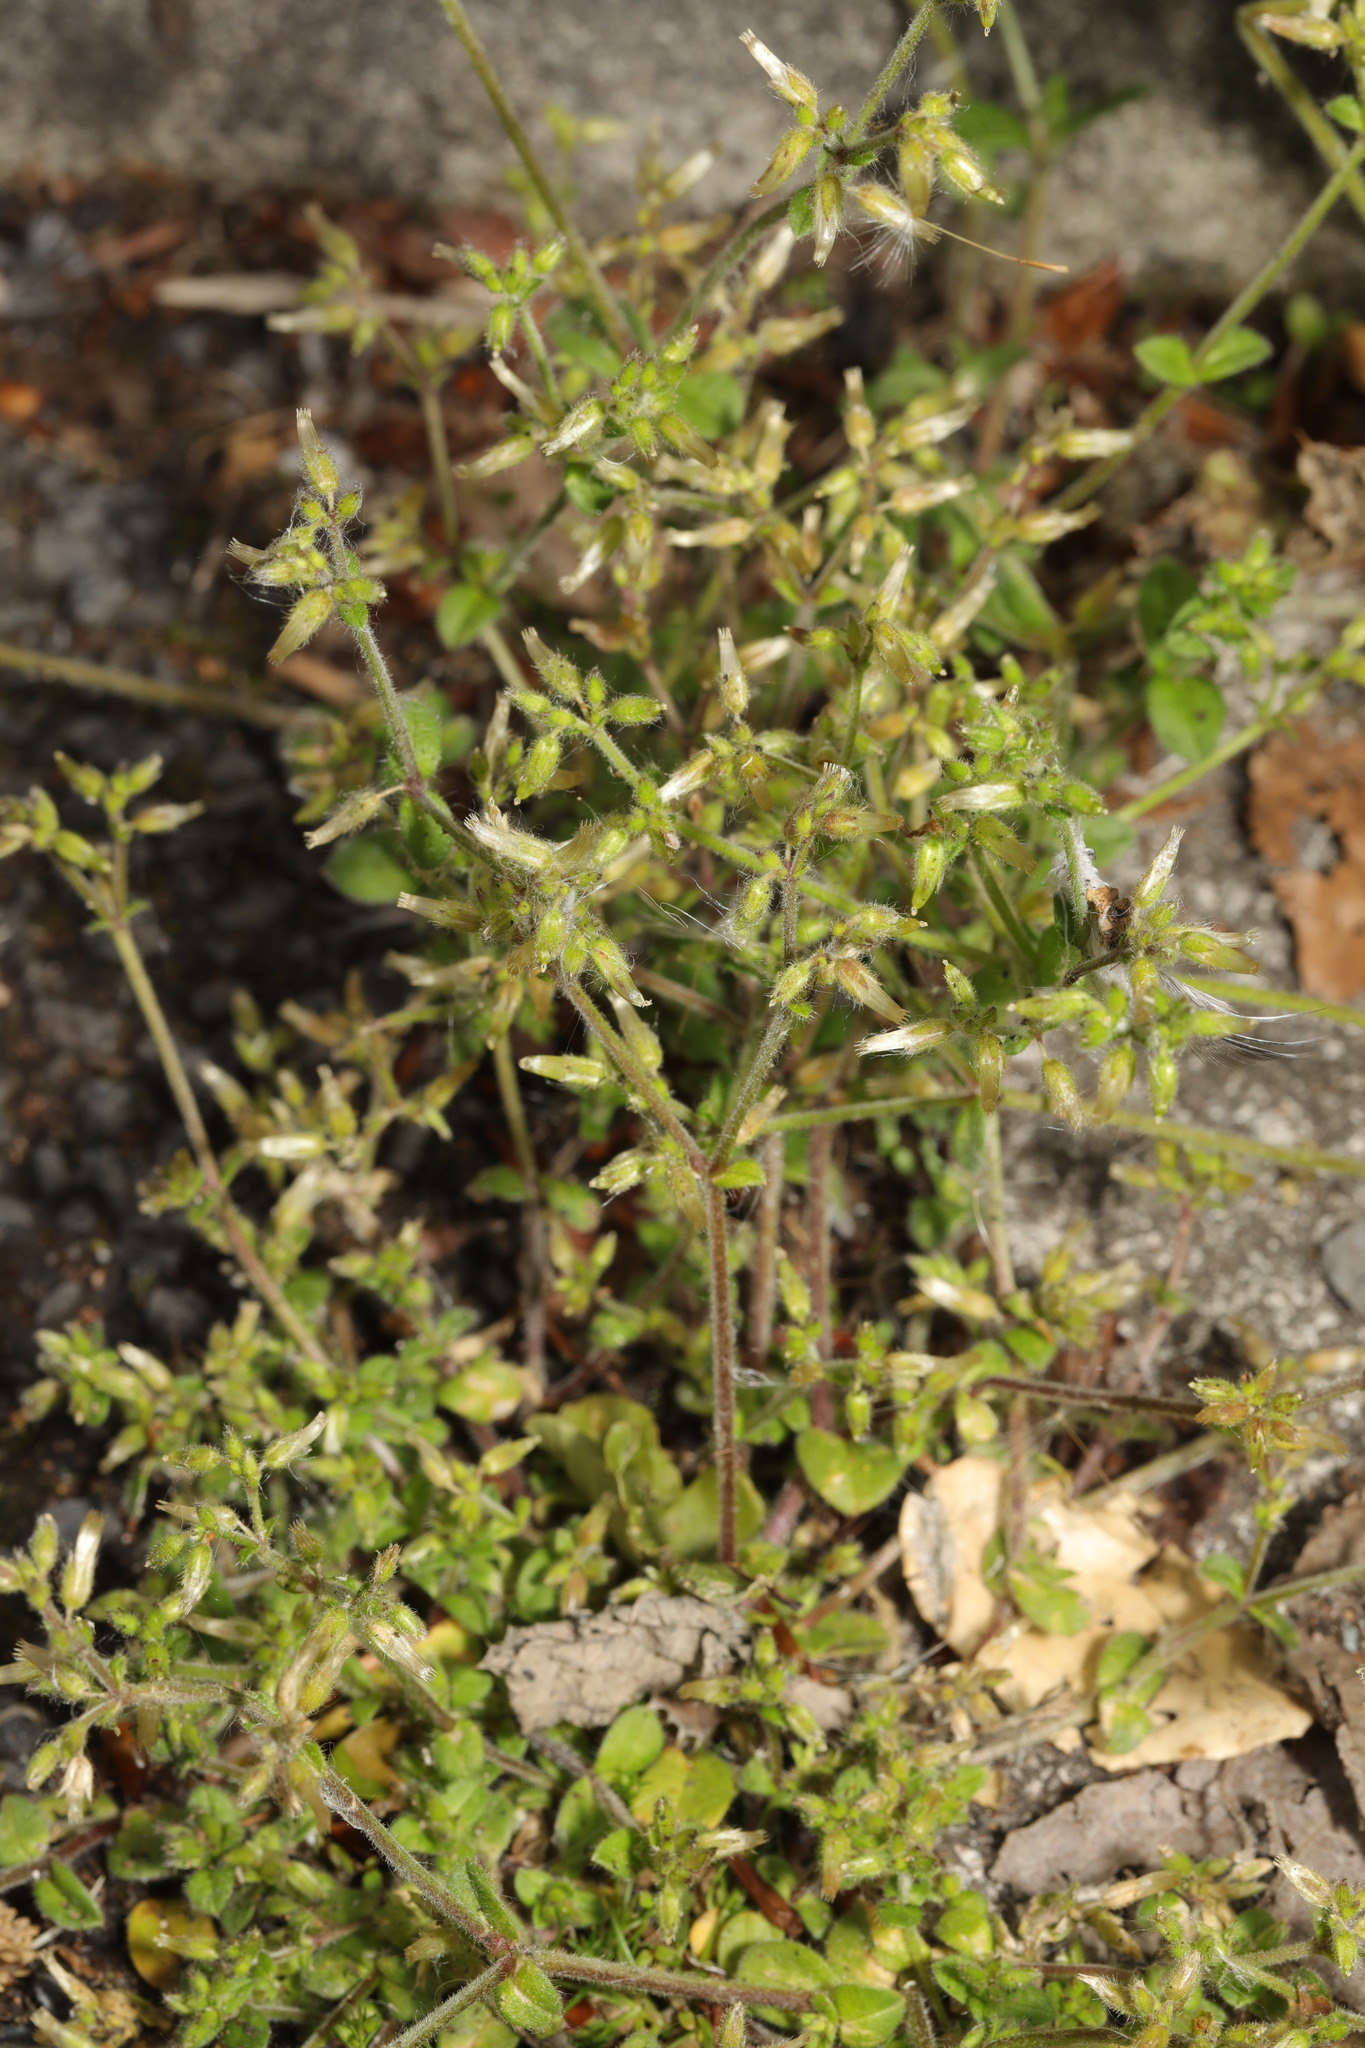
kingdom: Plantae
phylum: Tracheophyta
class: Magnoliopsida
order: Caryophyllales
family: Caryophyllaceae
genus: Cerastium
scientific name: Cerastium glomeratum
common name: Sticky chickweed
